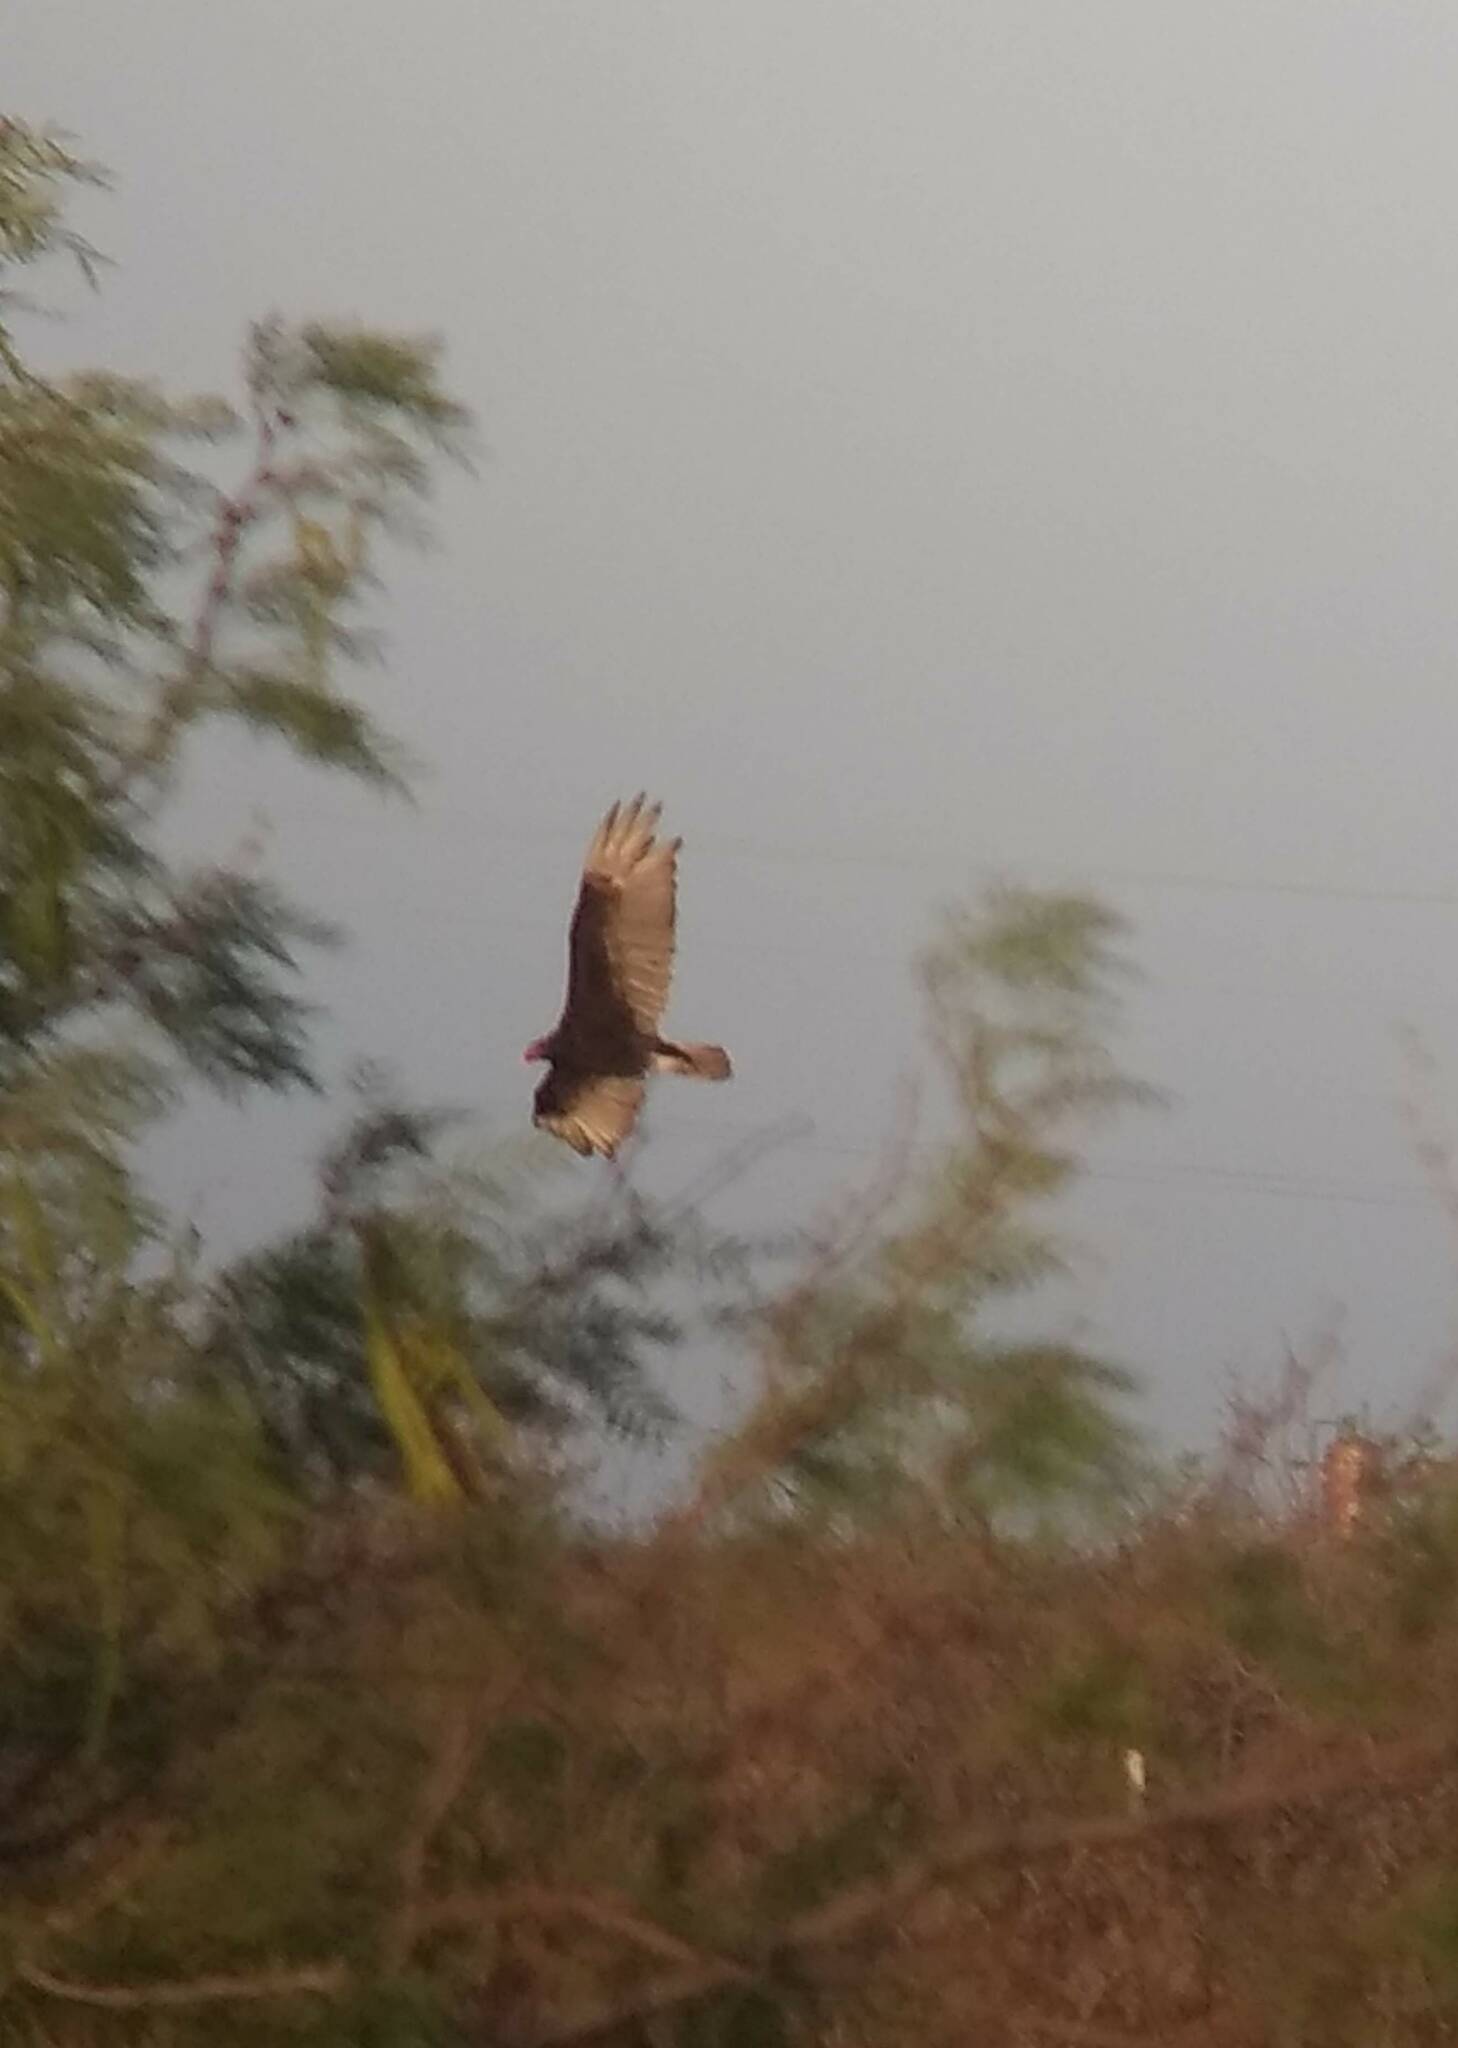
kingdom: Animalia
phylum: Chordata
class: Aves
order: Accipitriformes
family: Cathartidae
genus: Cathartes
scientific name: Cathartes aura
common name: Turkey vulture
